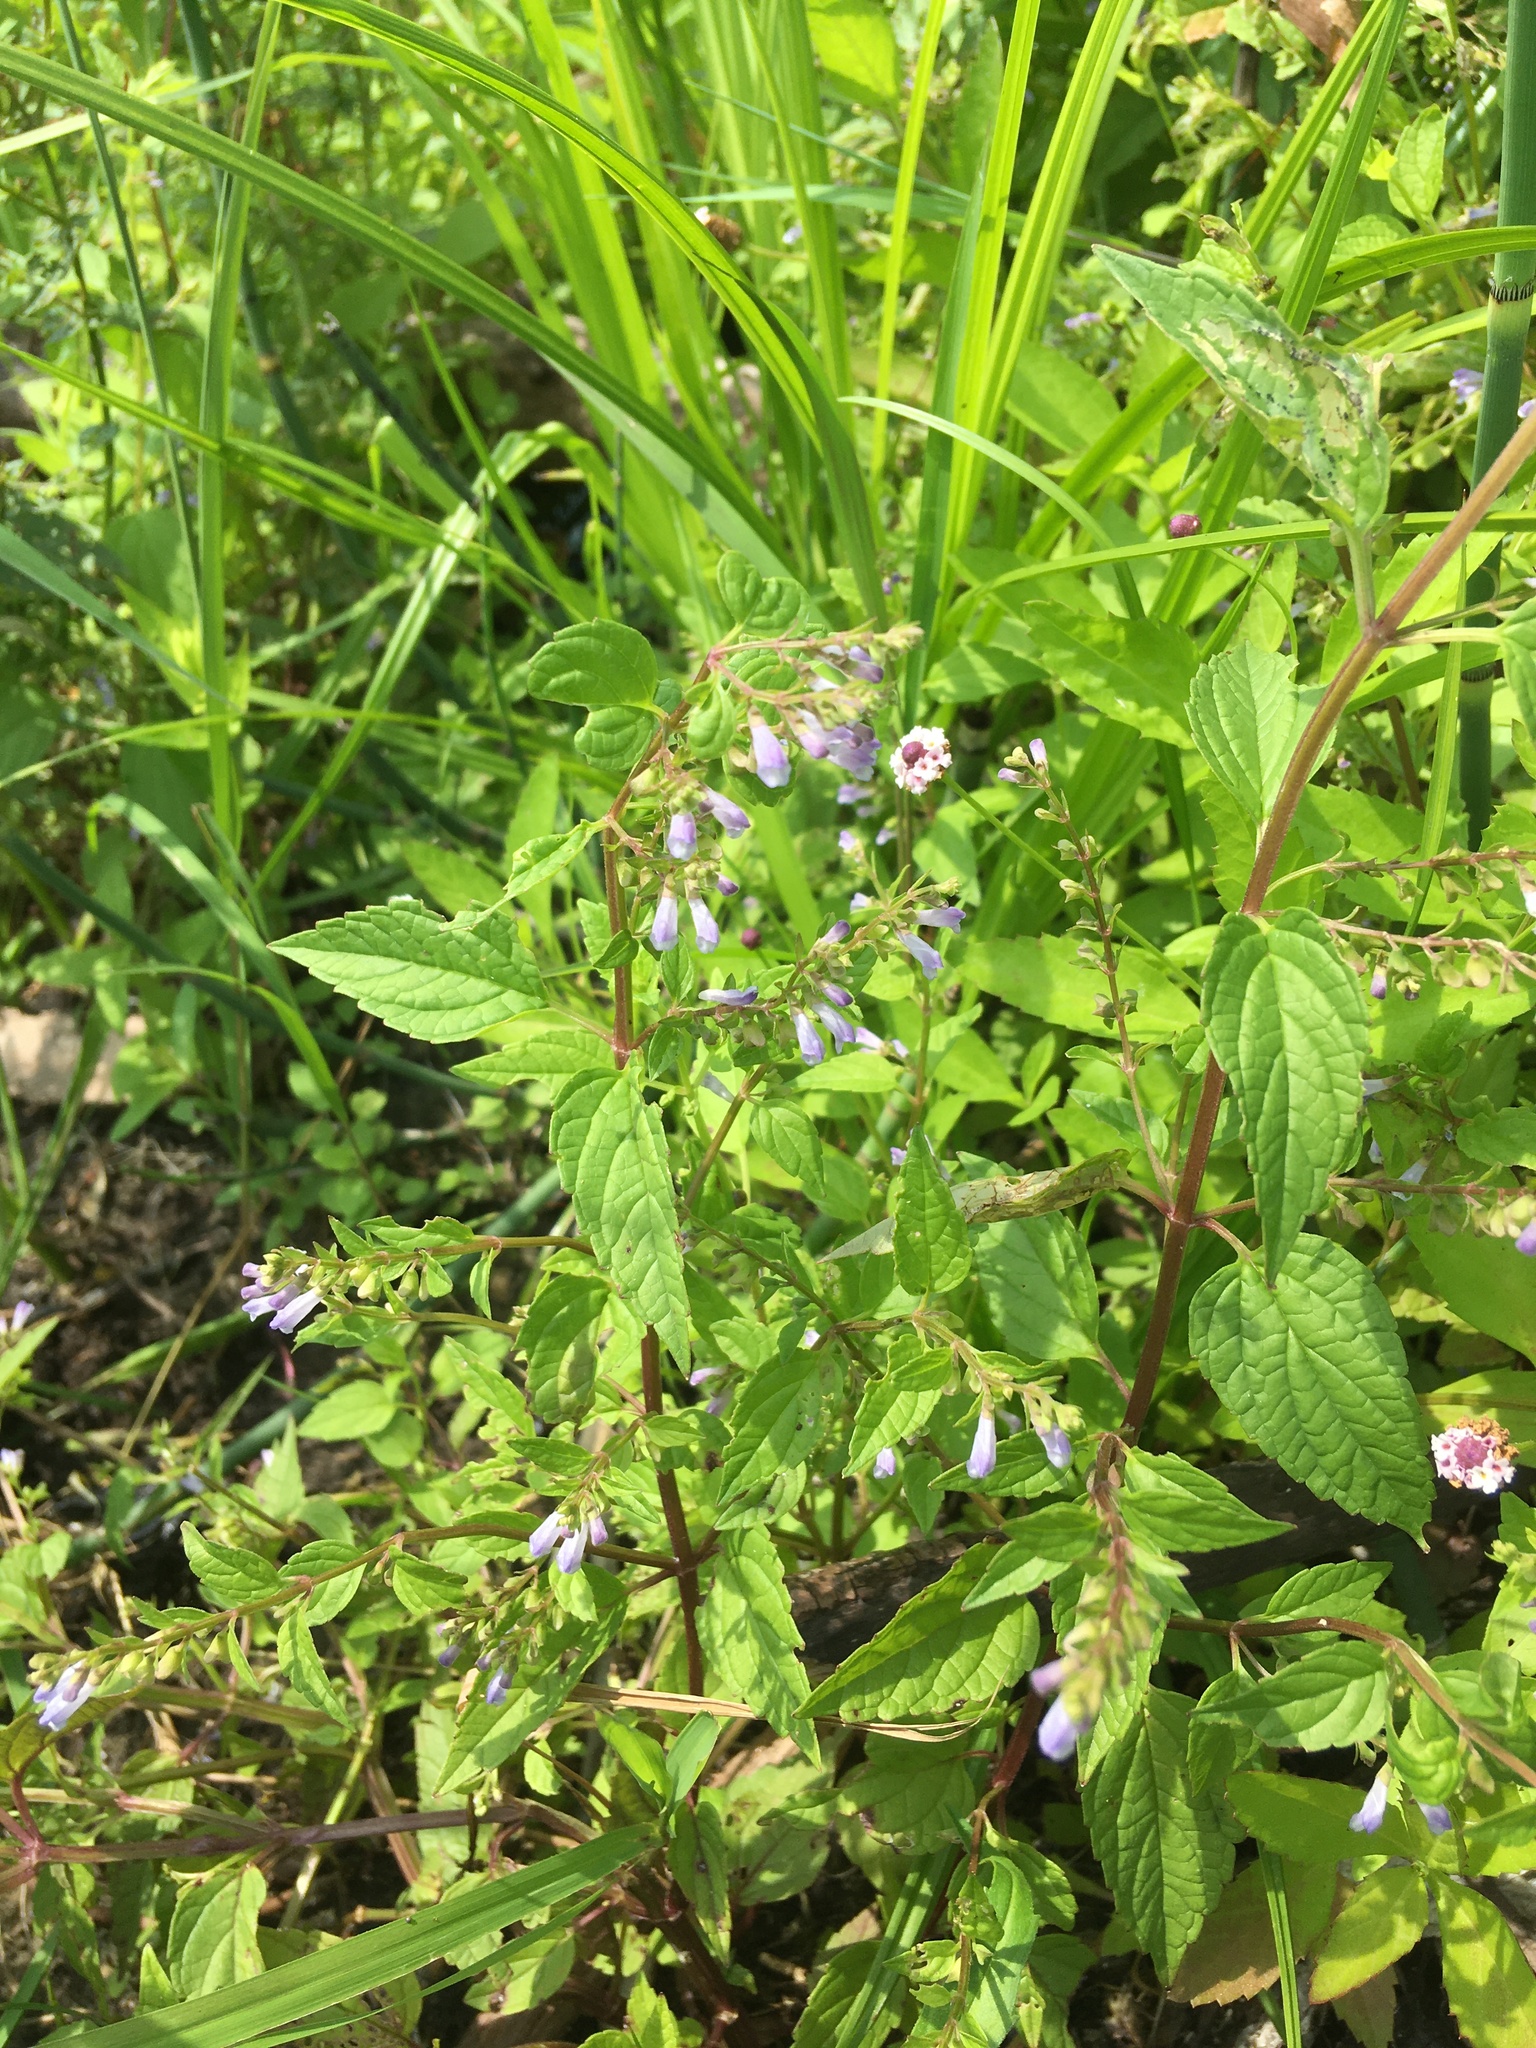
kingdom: Plantae
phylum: Tracheophyta
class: Magnoliopsida
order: Lamiales
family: Lamiaceae
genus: Scutellaria
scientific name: Scutellaria lateriflora
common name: Blue skullcap
